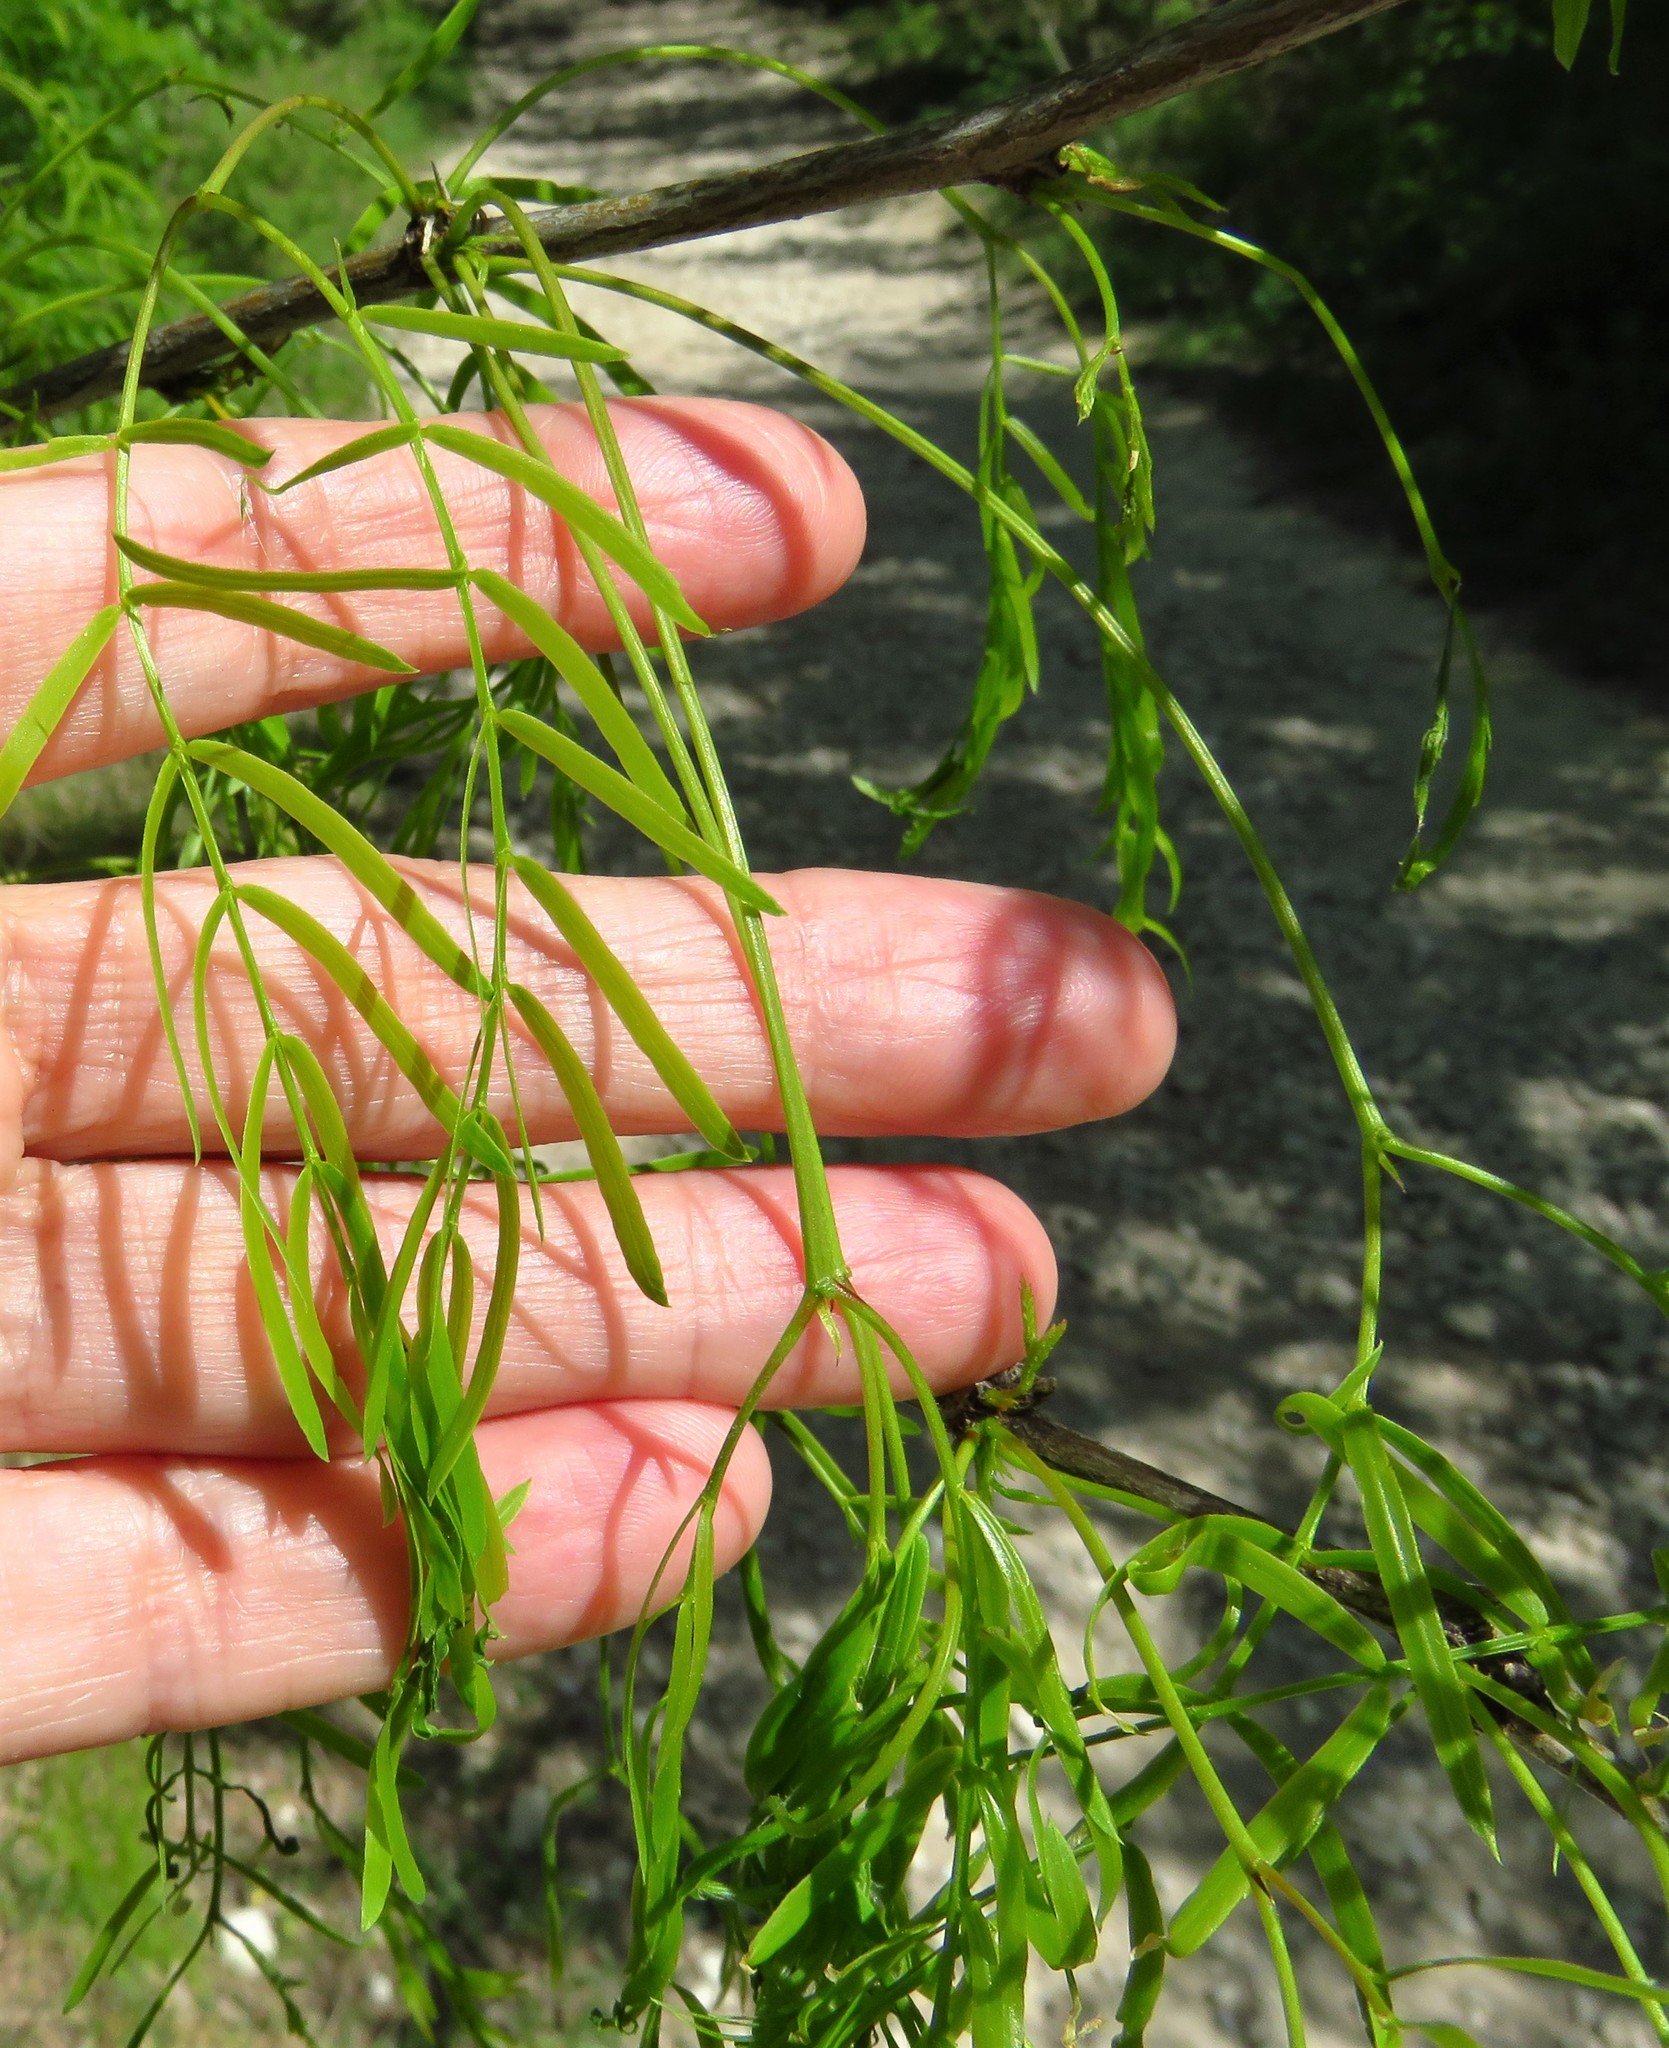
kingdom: Plantae
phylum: Tracheophyta
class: Magnoliopsida
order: Fabales
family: Fabaceae
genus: Prosopis
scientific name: Prosopis glandulosa
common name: Honey mesquite
